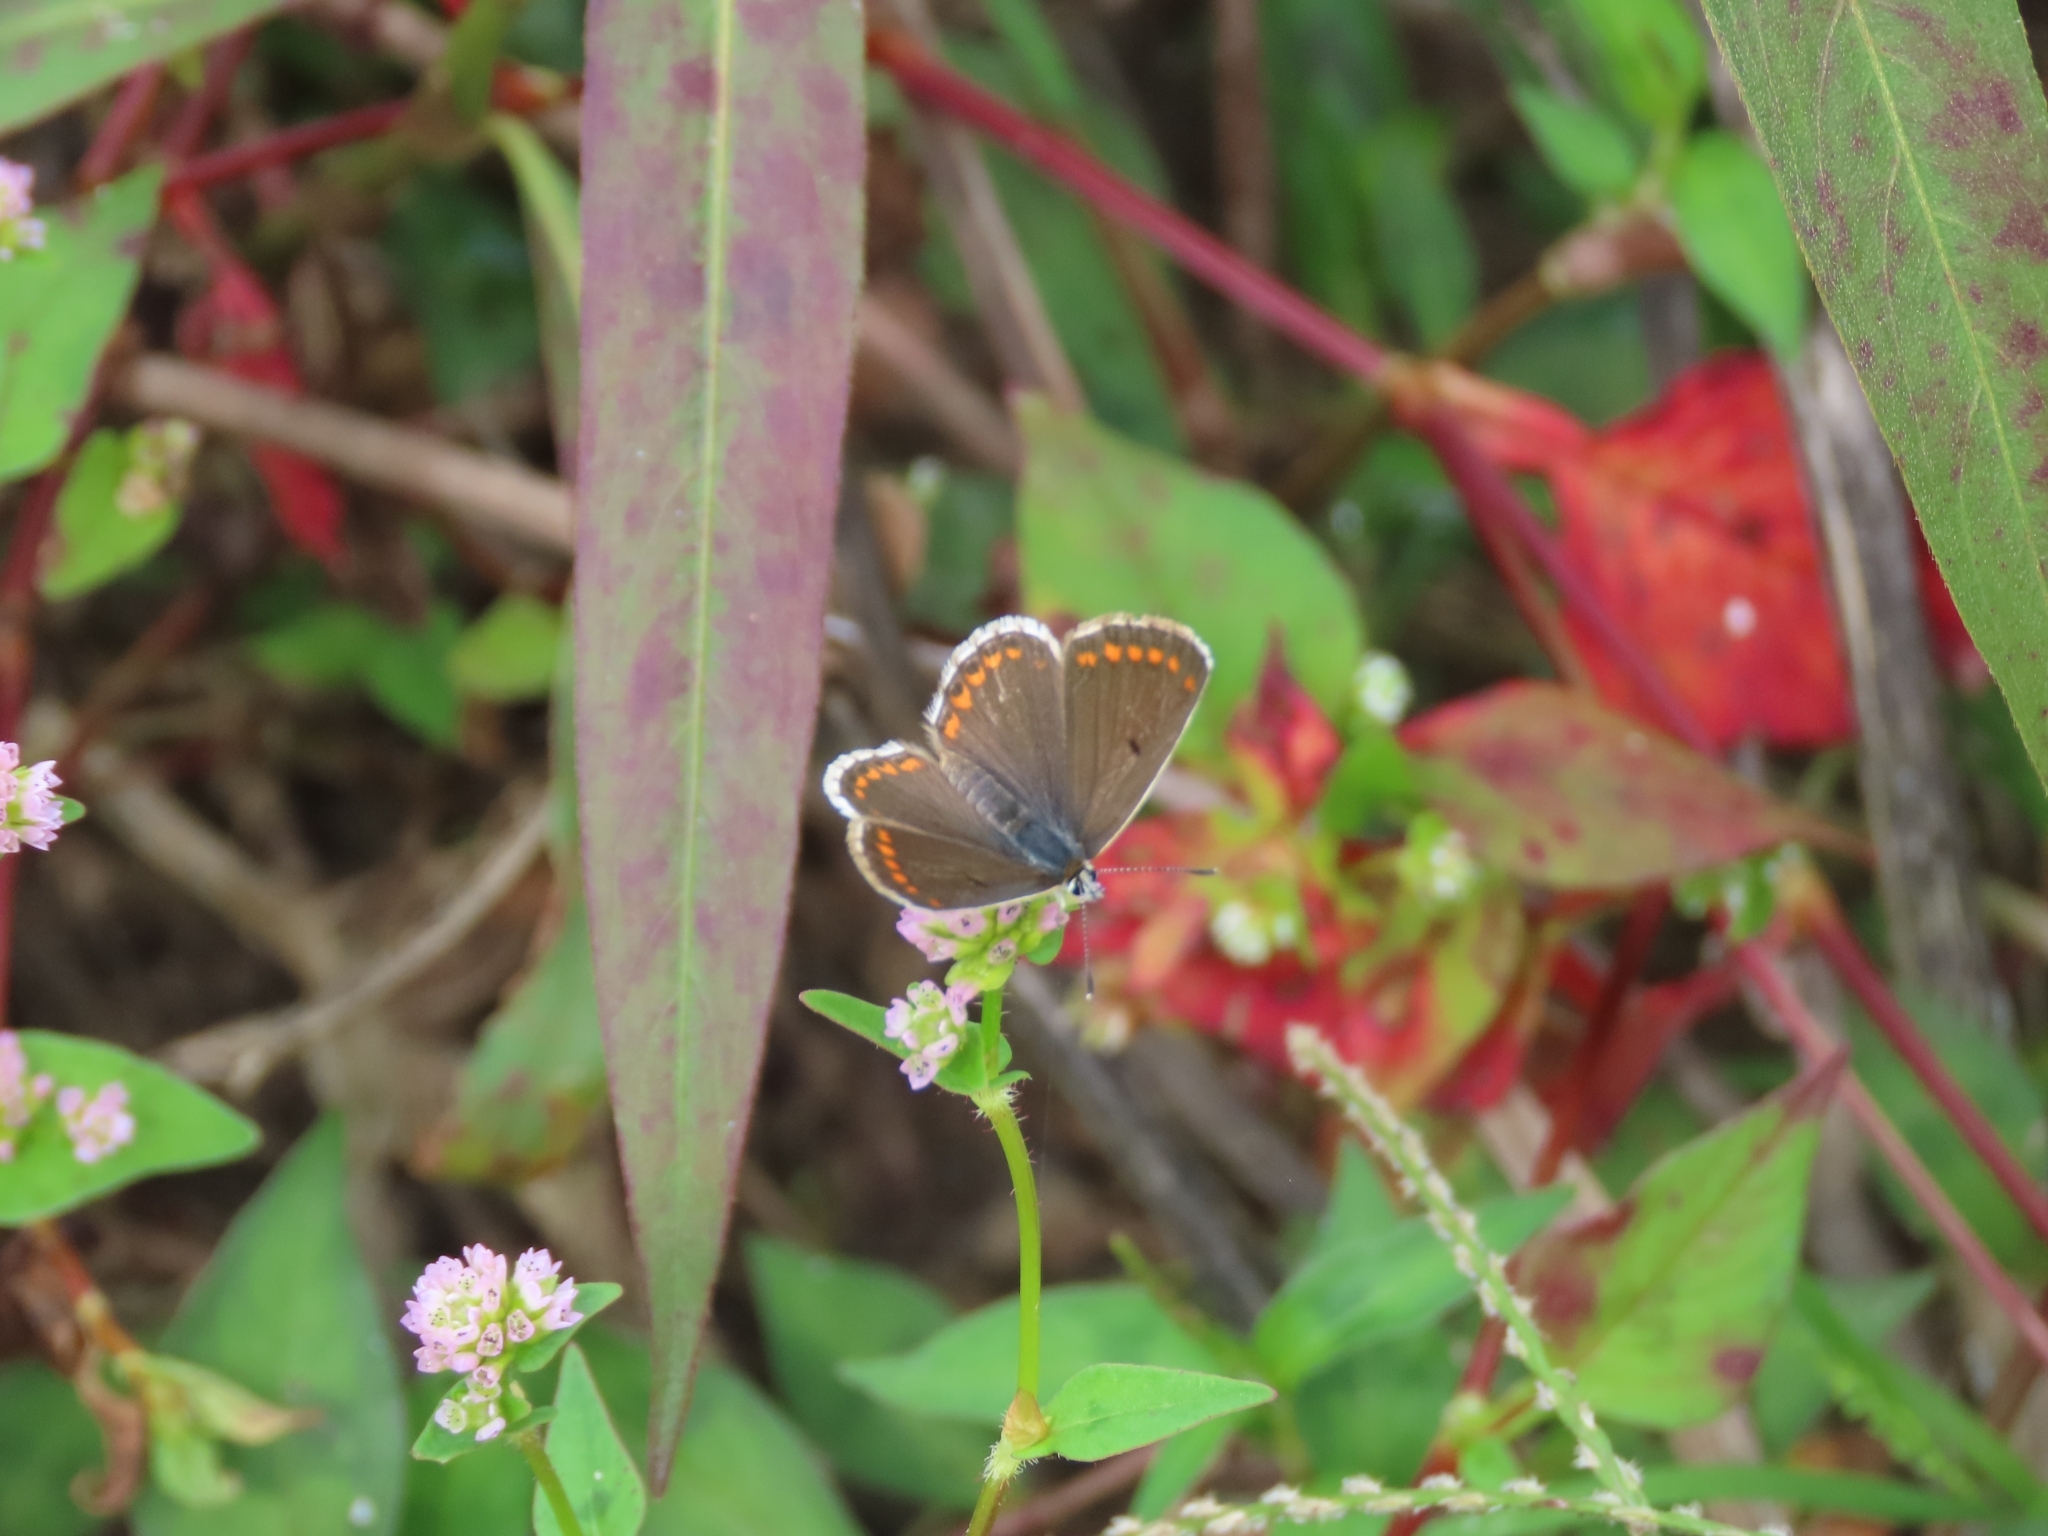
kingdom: Animalia
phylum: Arthropoda
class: Insecta
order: Lepidoptera
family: Lycaenidae
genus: Aricia
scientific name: Aricia agestis
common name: Brown argus
